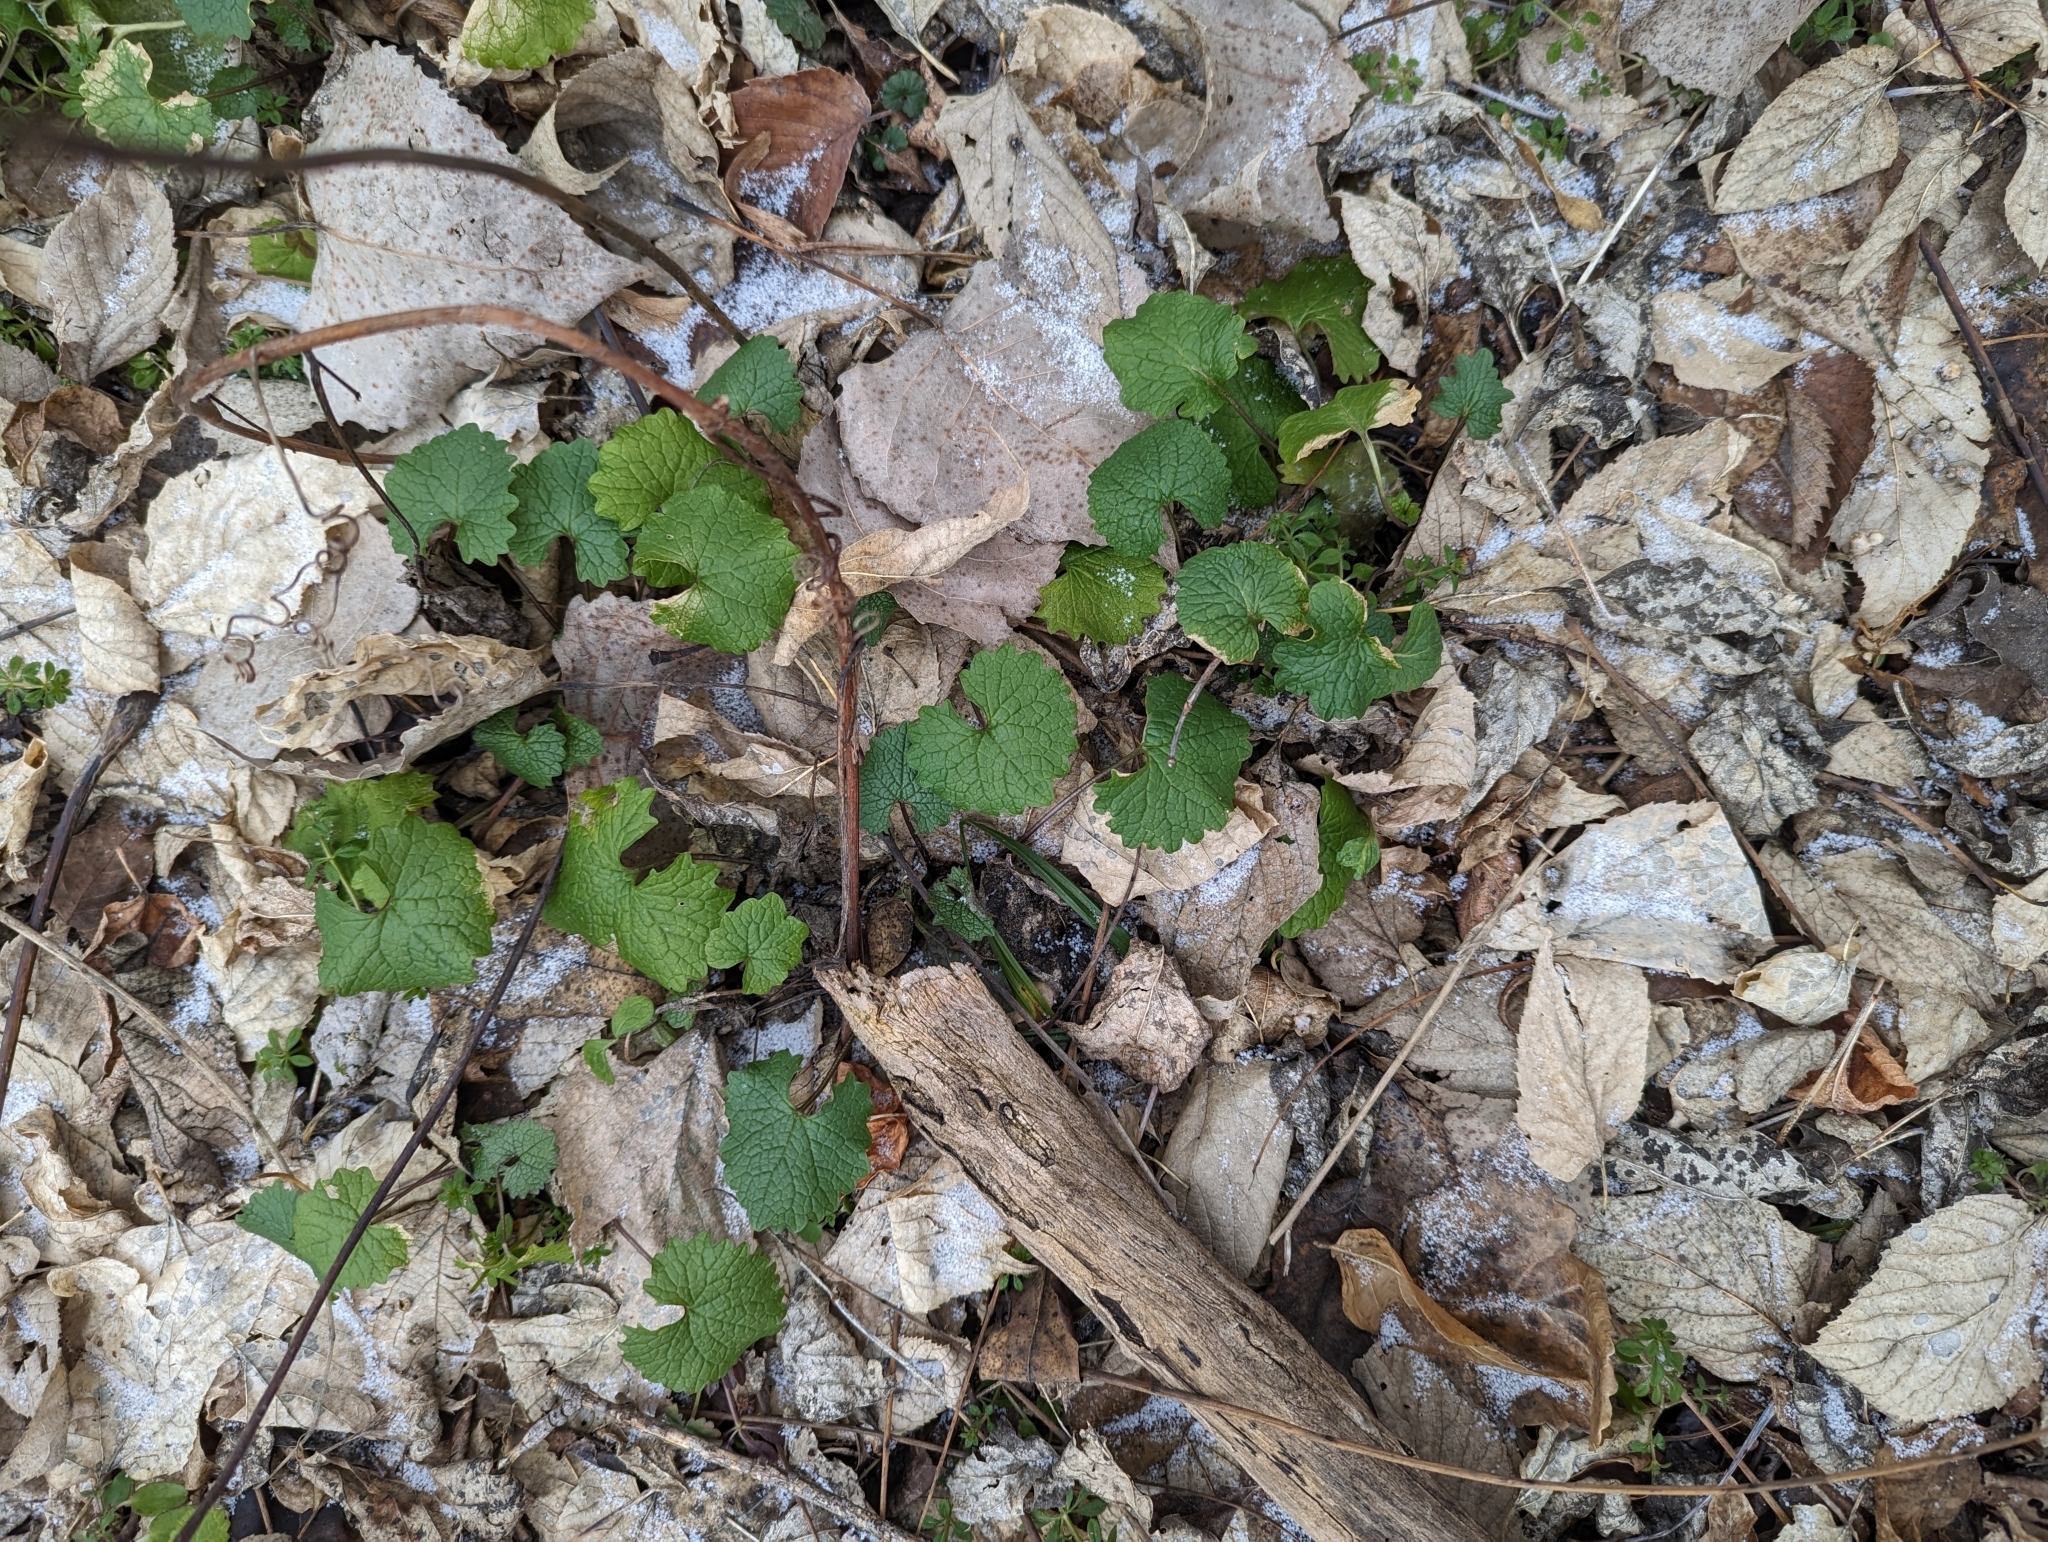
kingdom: Plantae
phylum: Tracheophyta
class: Magnoliopsida
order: Brassicales
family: Brassicaceae
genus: Alliaria
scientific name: Alliaria petiolata
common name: Garlic mustard
